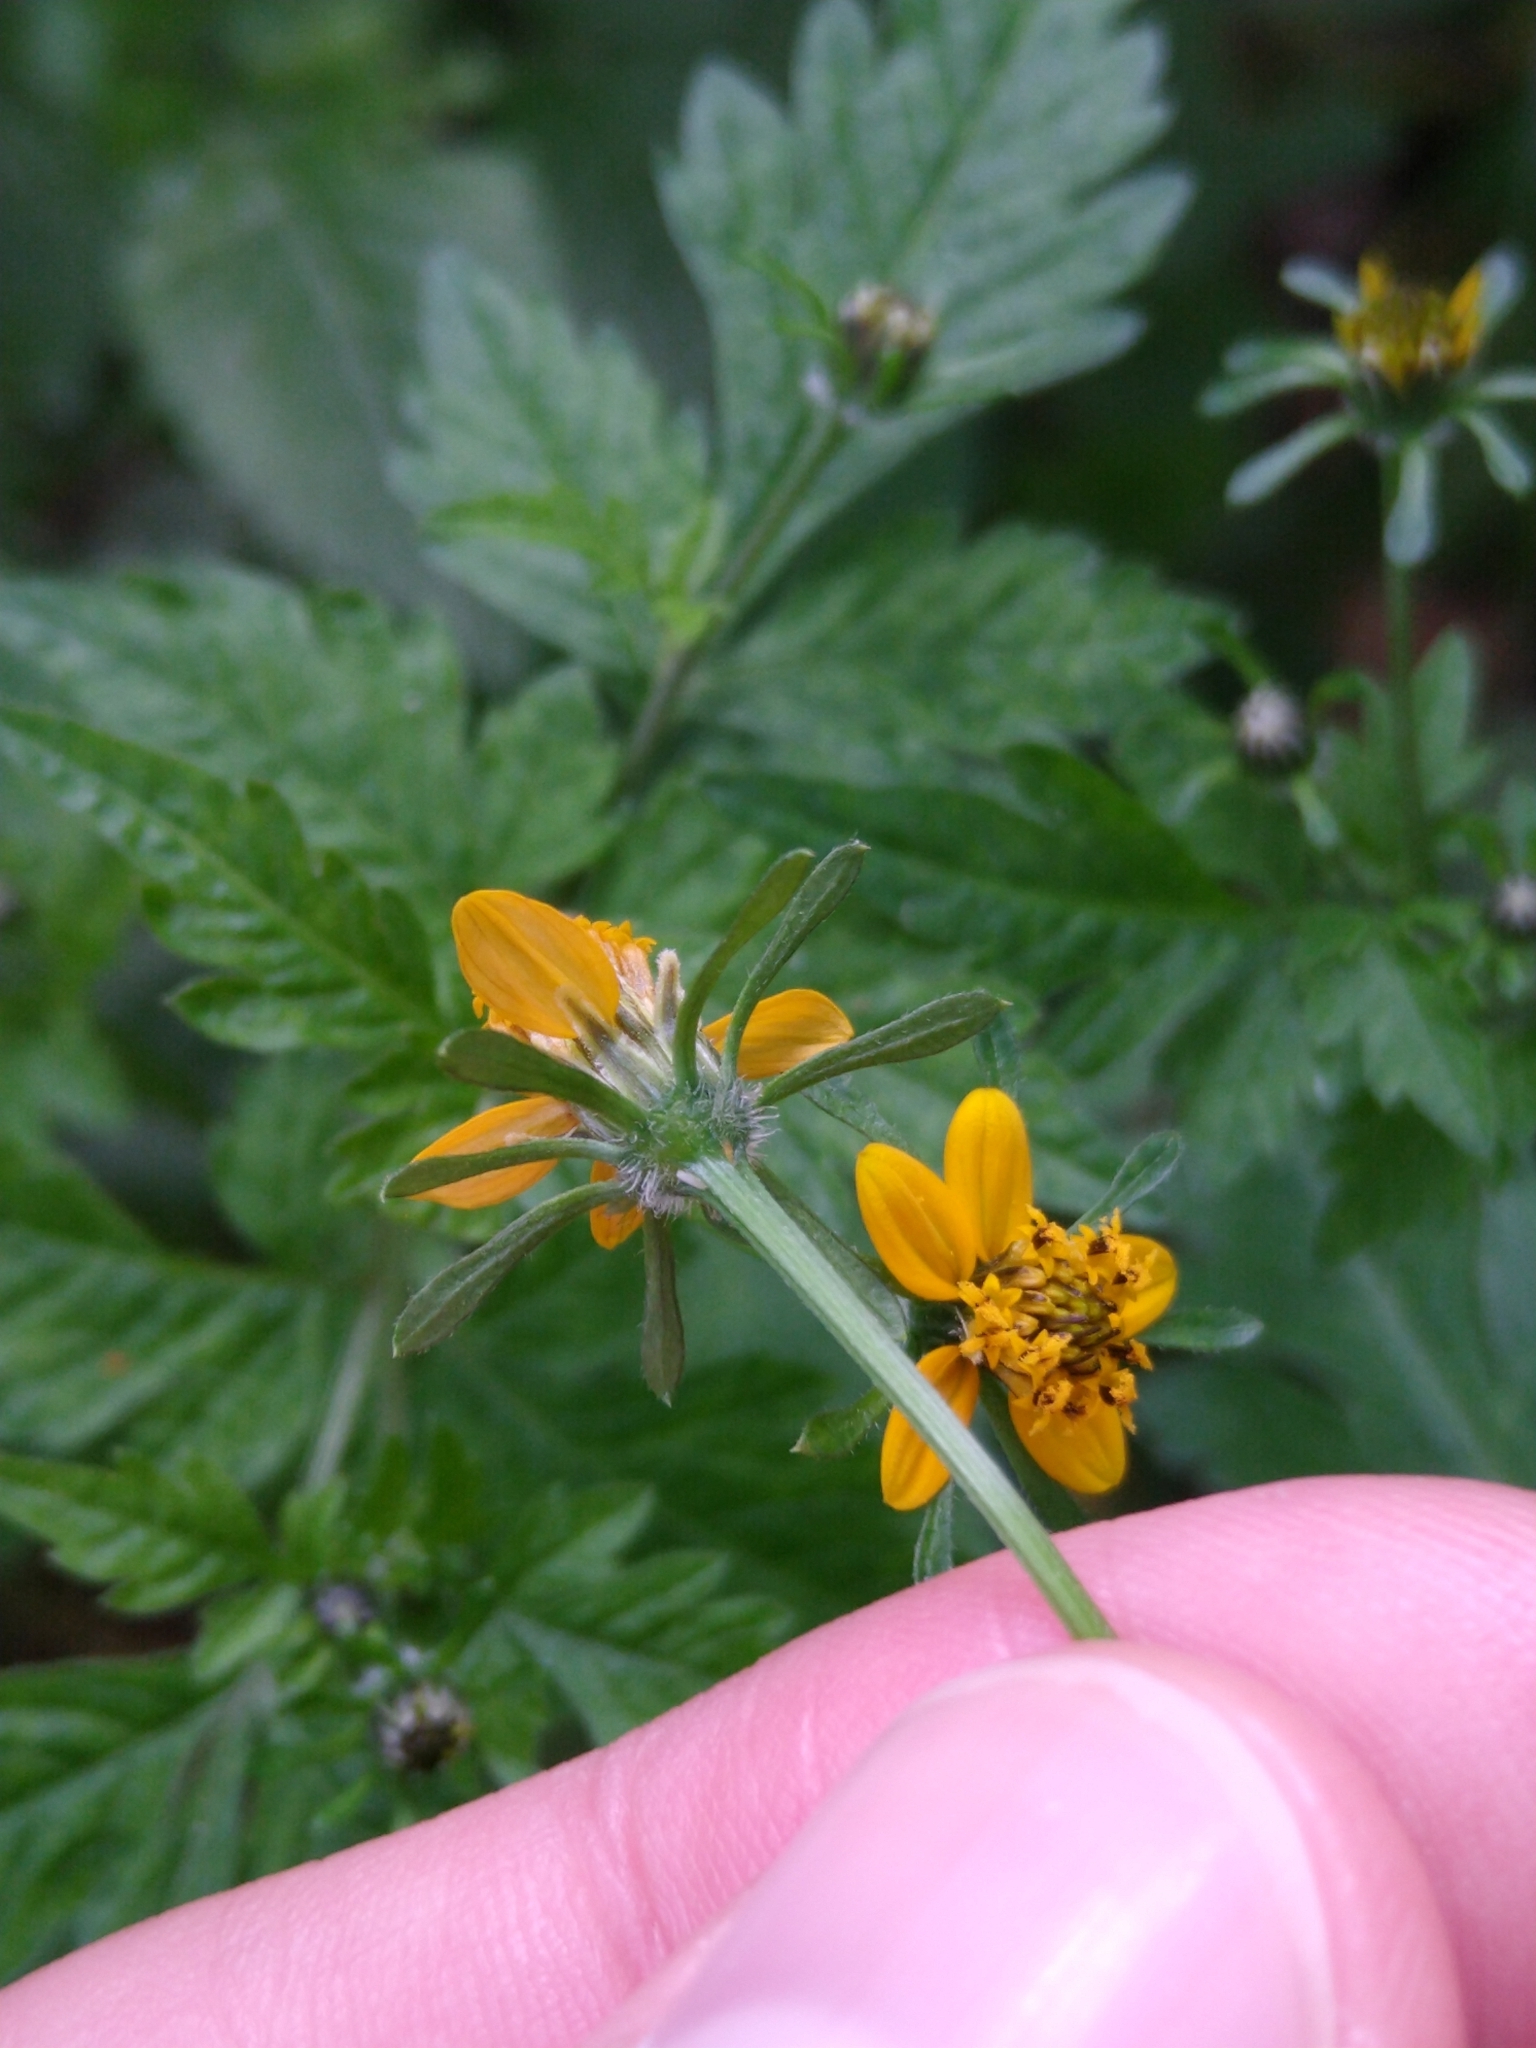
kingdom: Plantae
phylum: Tracheophyta
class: Magnoliopsida
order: Asterales
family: Asteraceae
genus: Bidens
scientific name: Bidens bigelovii
